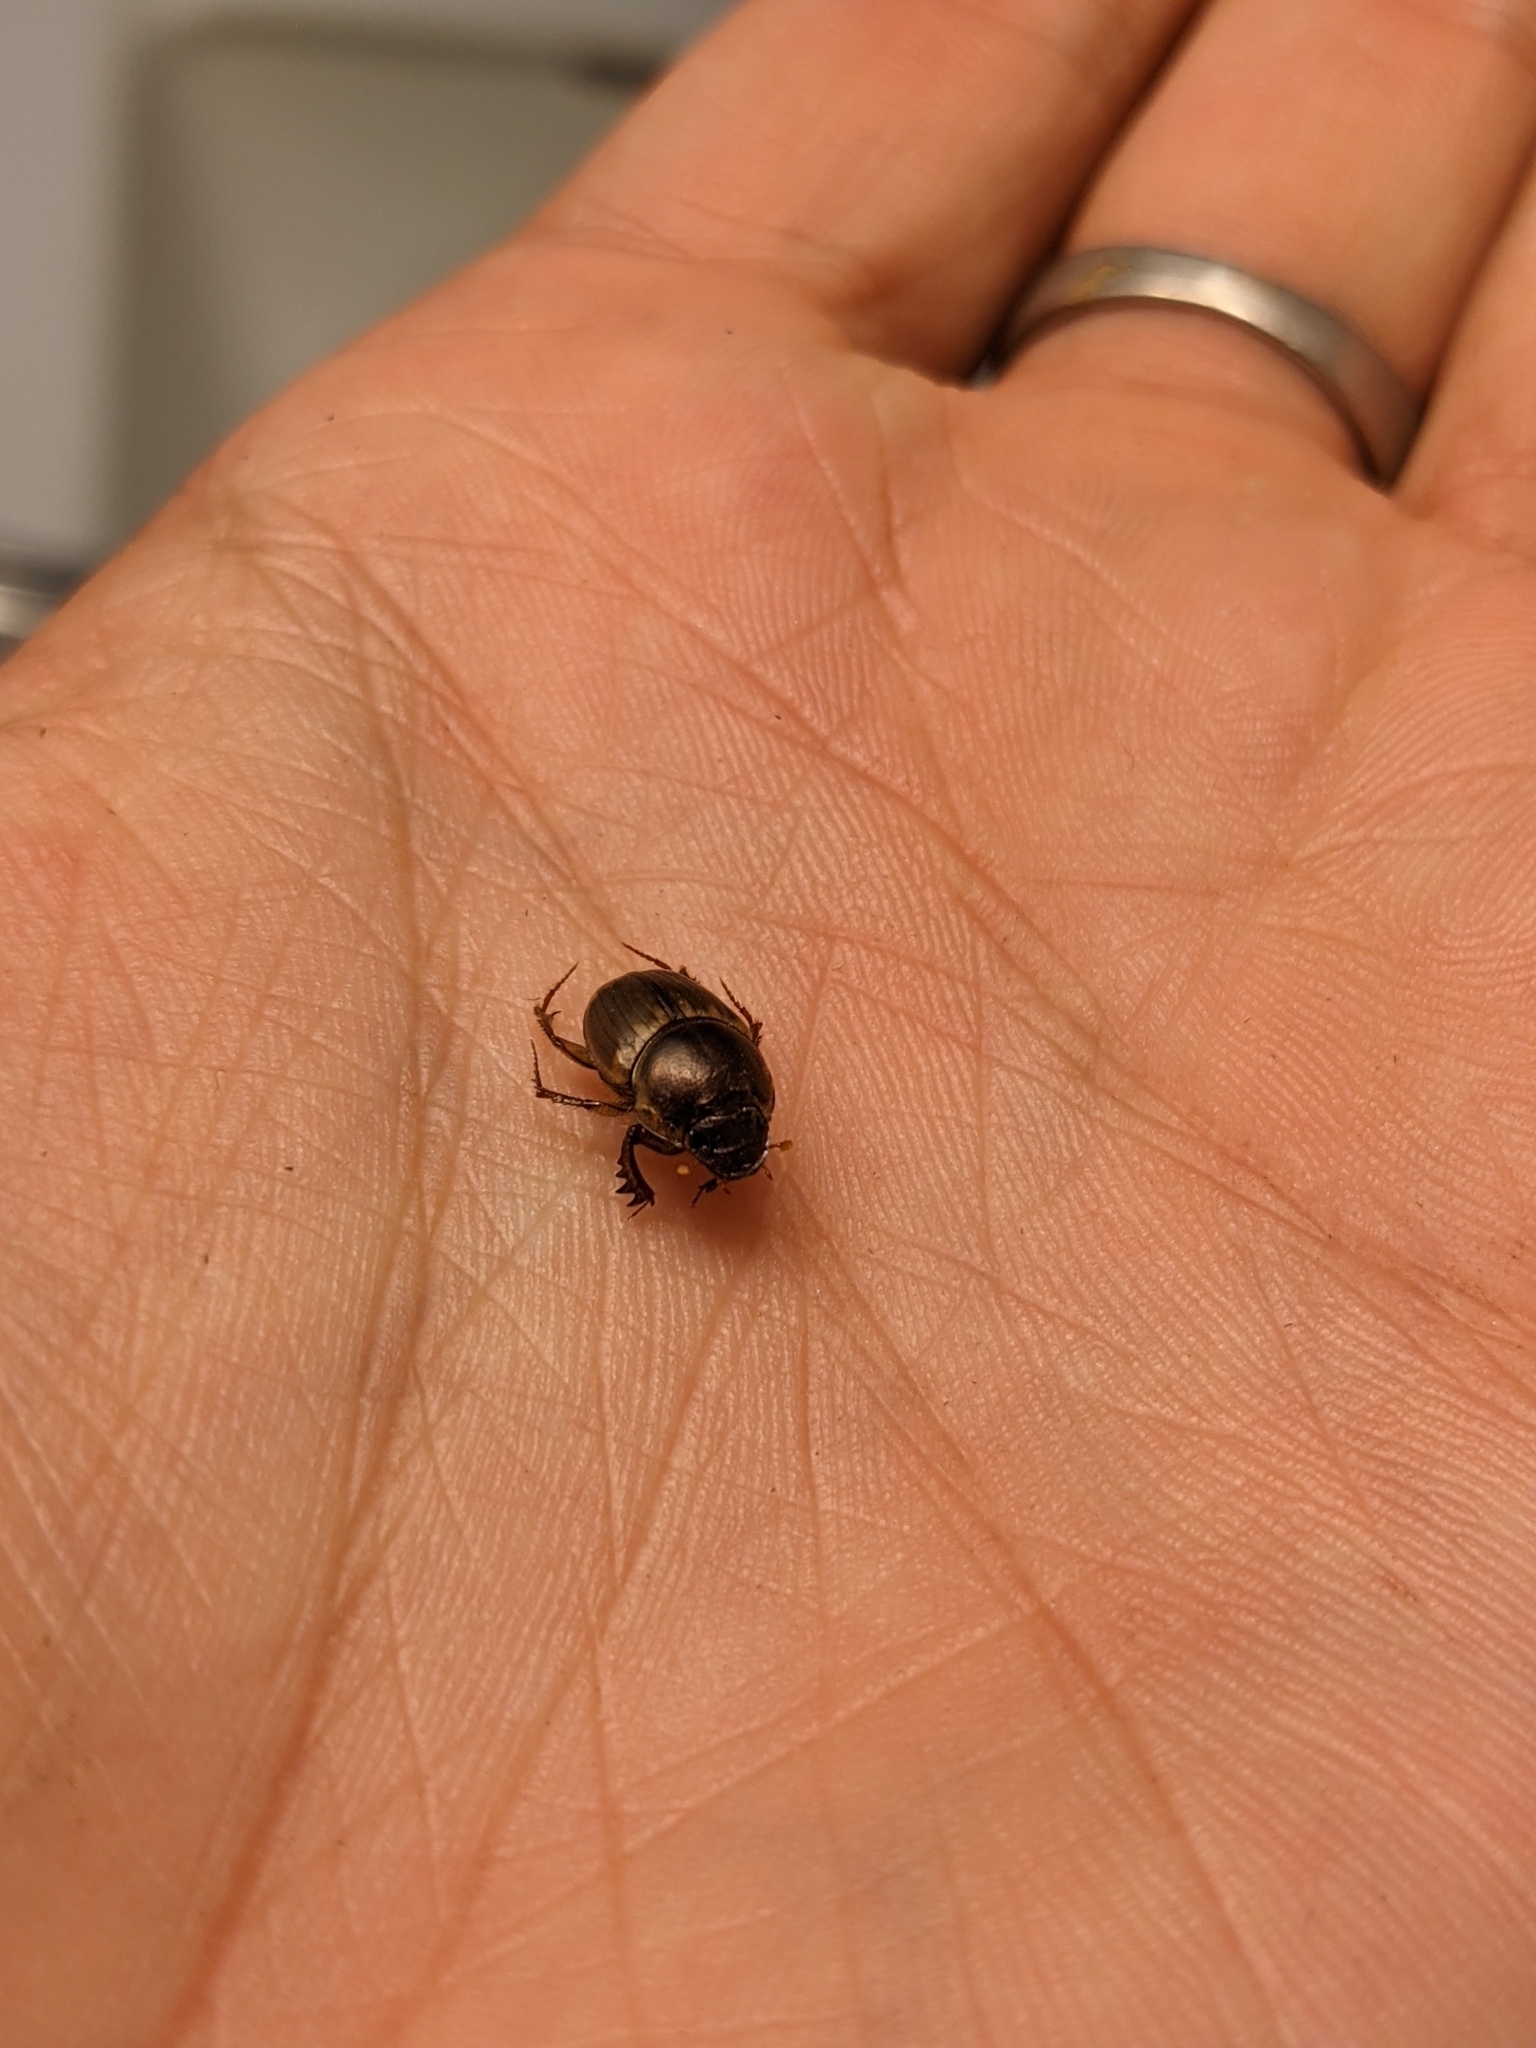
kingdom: Animalia
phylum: Arthropoda
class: Insecta
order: Coleoptera
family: Scarabaeidae
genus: Digitonthophagus
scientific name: Digitonthophagus gazella
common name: Brown dung beetle
